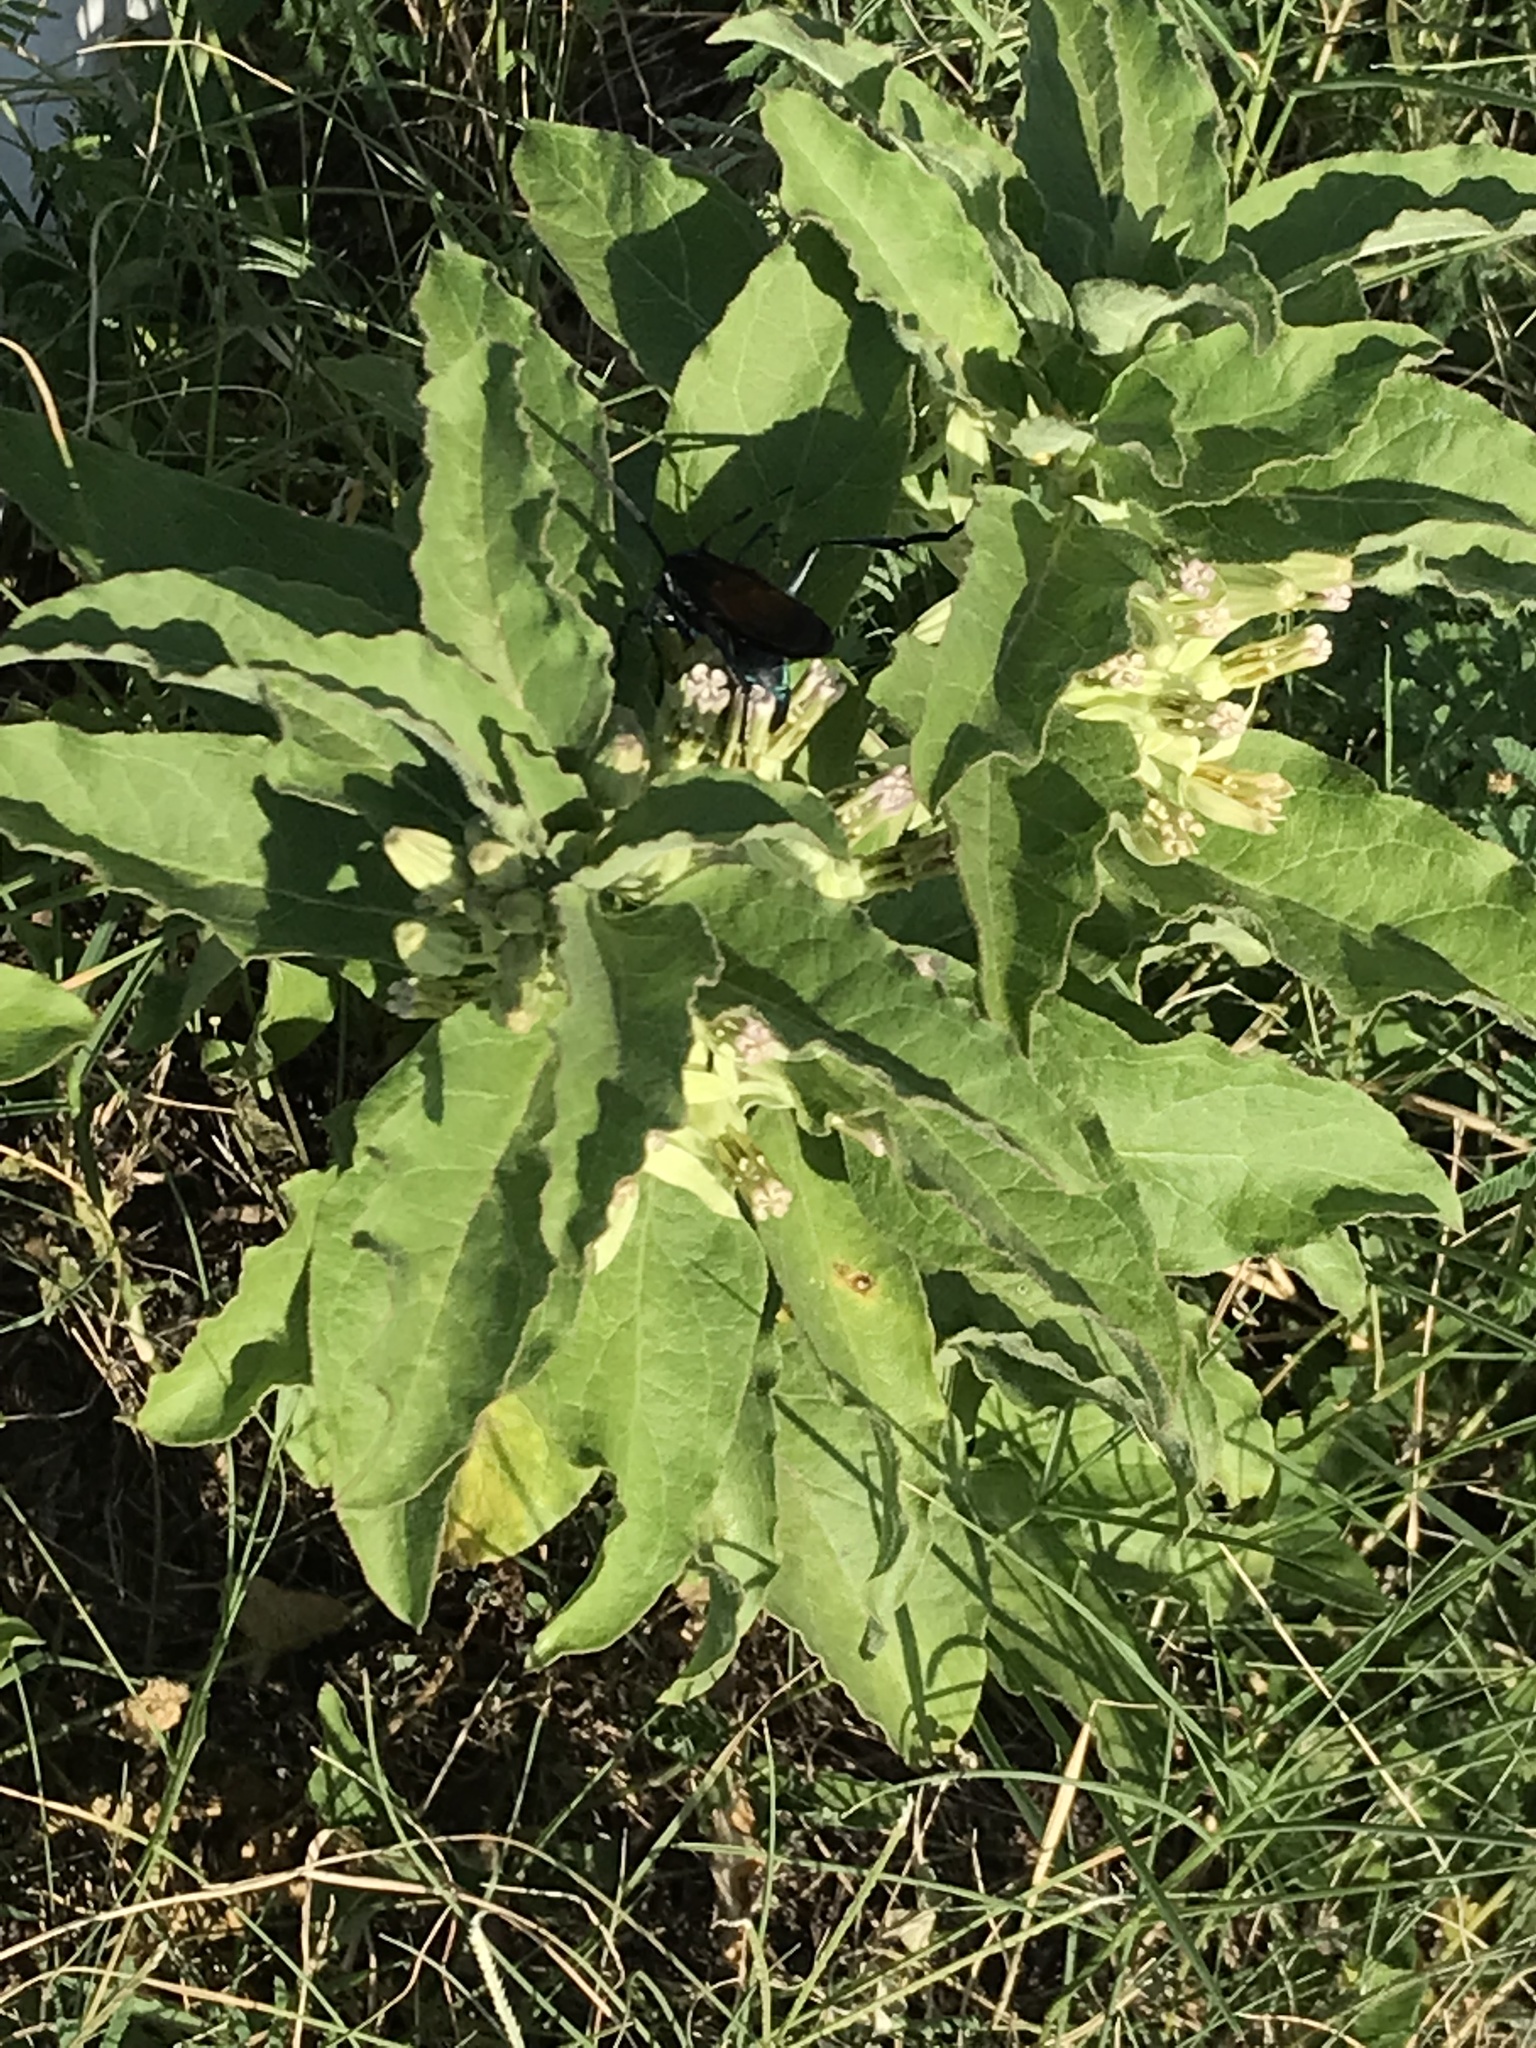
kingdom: Plantae
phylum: Tracheophyta
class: Magnoliopsida
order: Gentianales
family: Apocynaceae
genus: Asclepias
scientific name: Asclepias oenotheroides
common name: Zizotes milkweed
